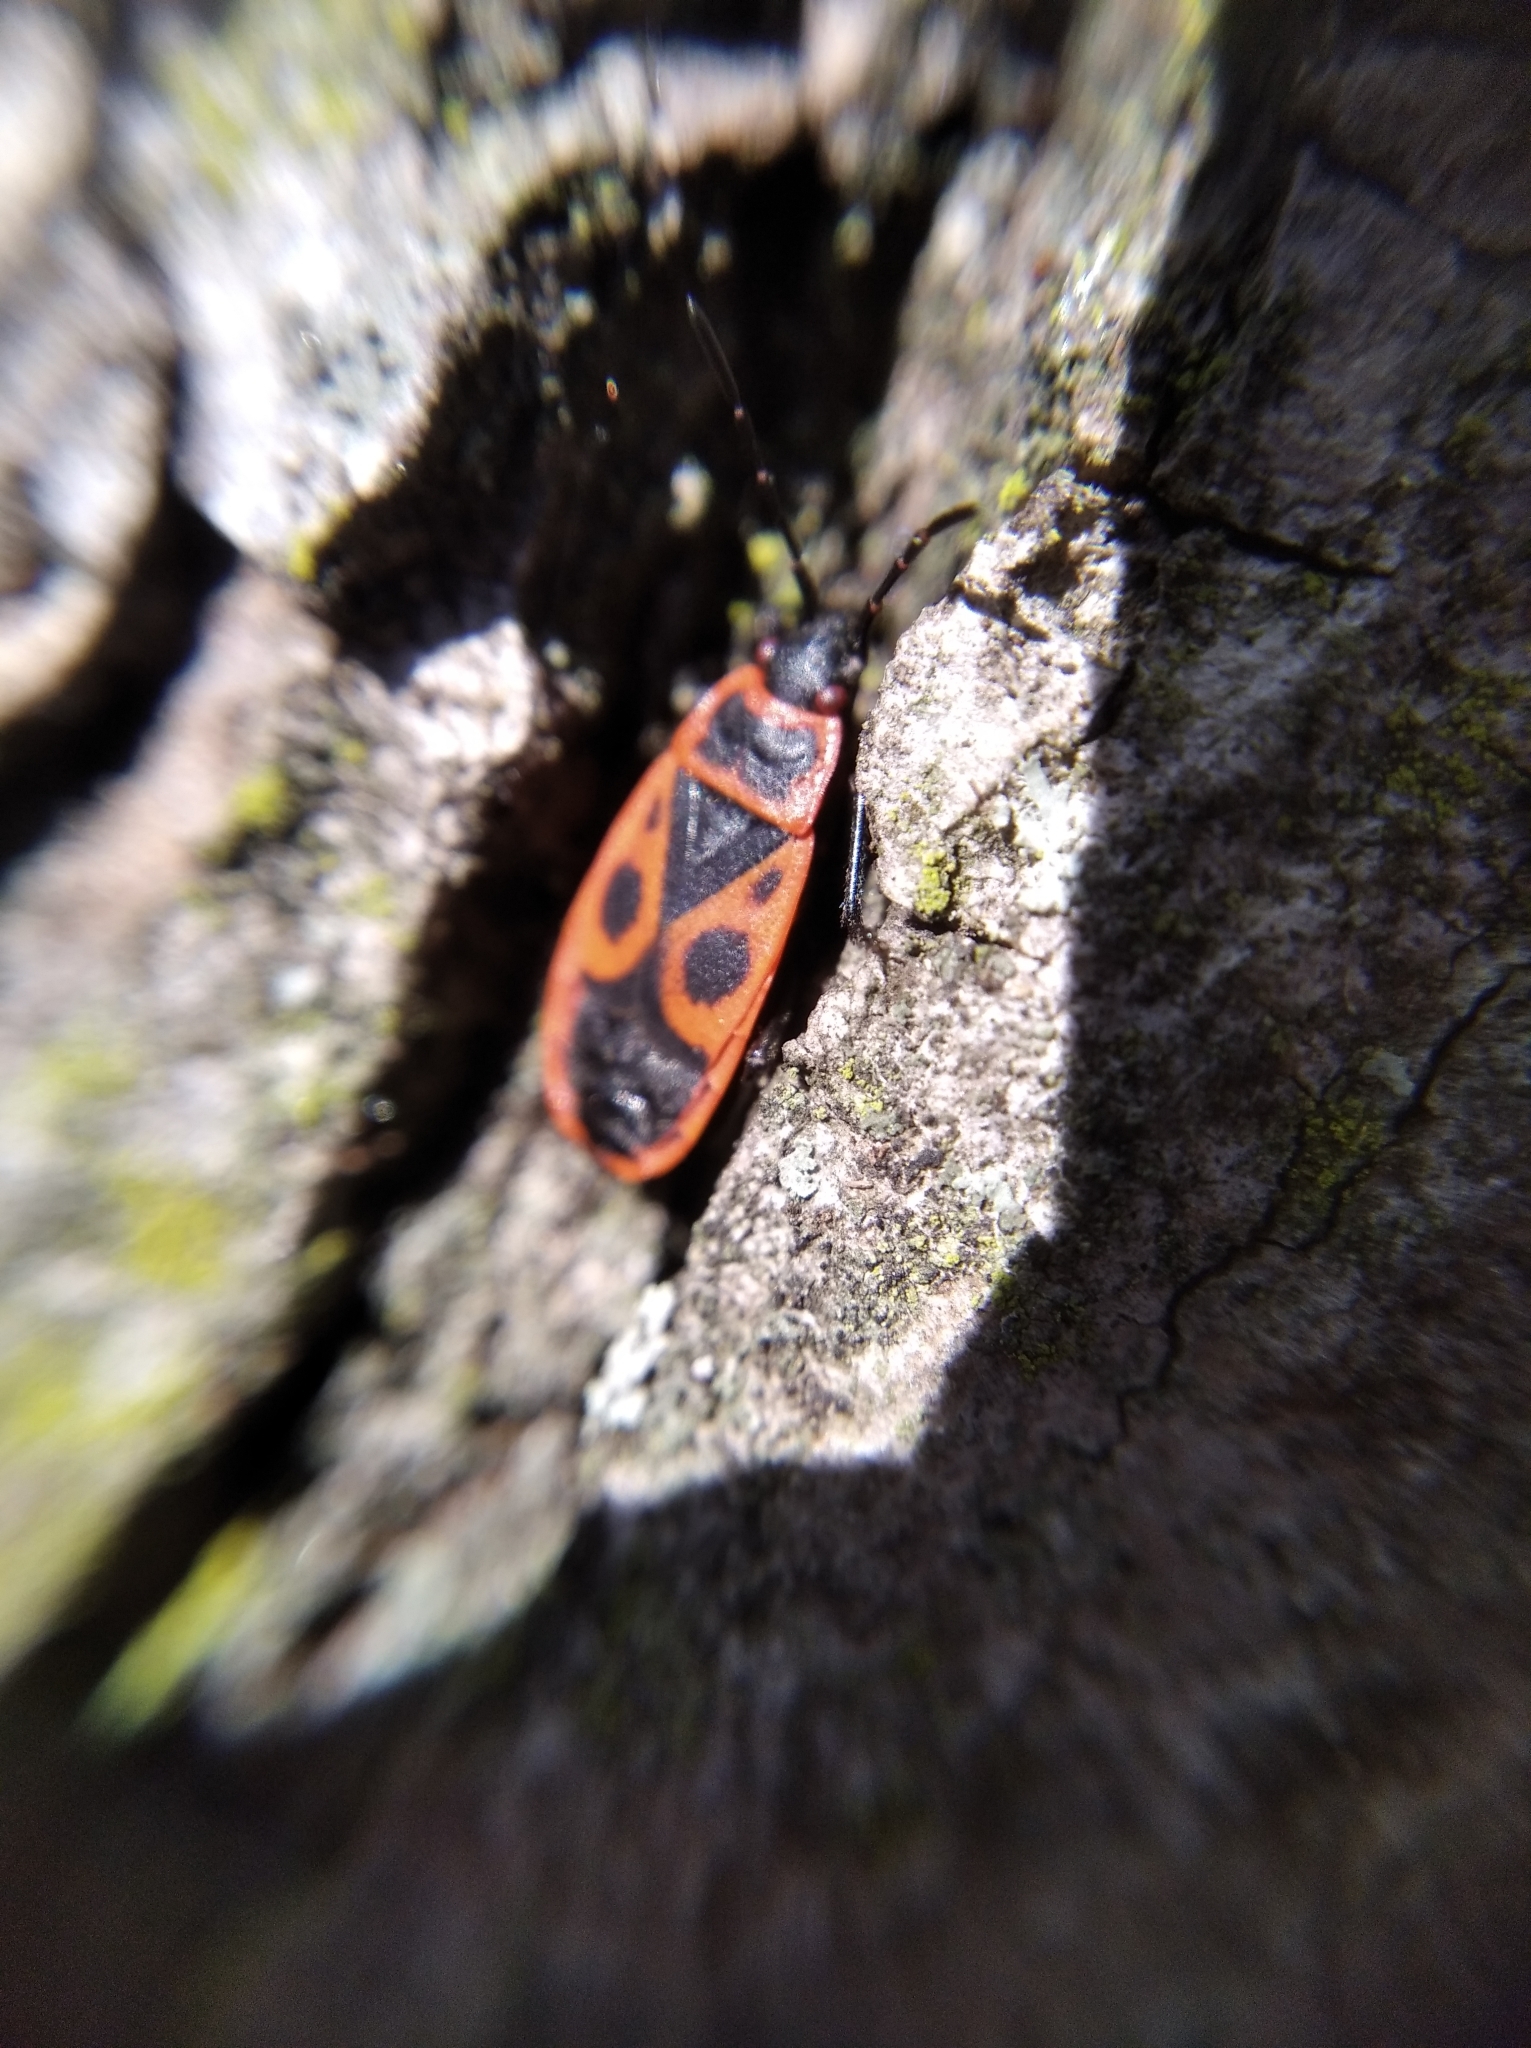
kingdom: Animalia
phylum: Arthropoda
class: Insecta
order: Hemiptera
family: Pyrrhocoridae
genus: Pyrrhocoris
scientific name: Pyrrhocoris apterus
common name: Firebug
